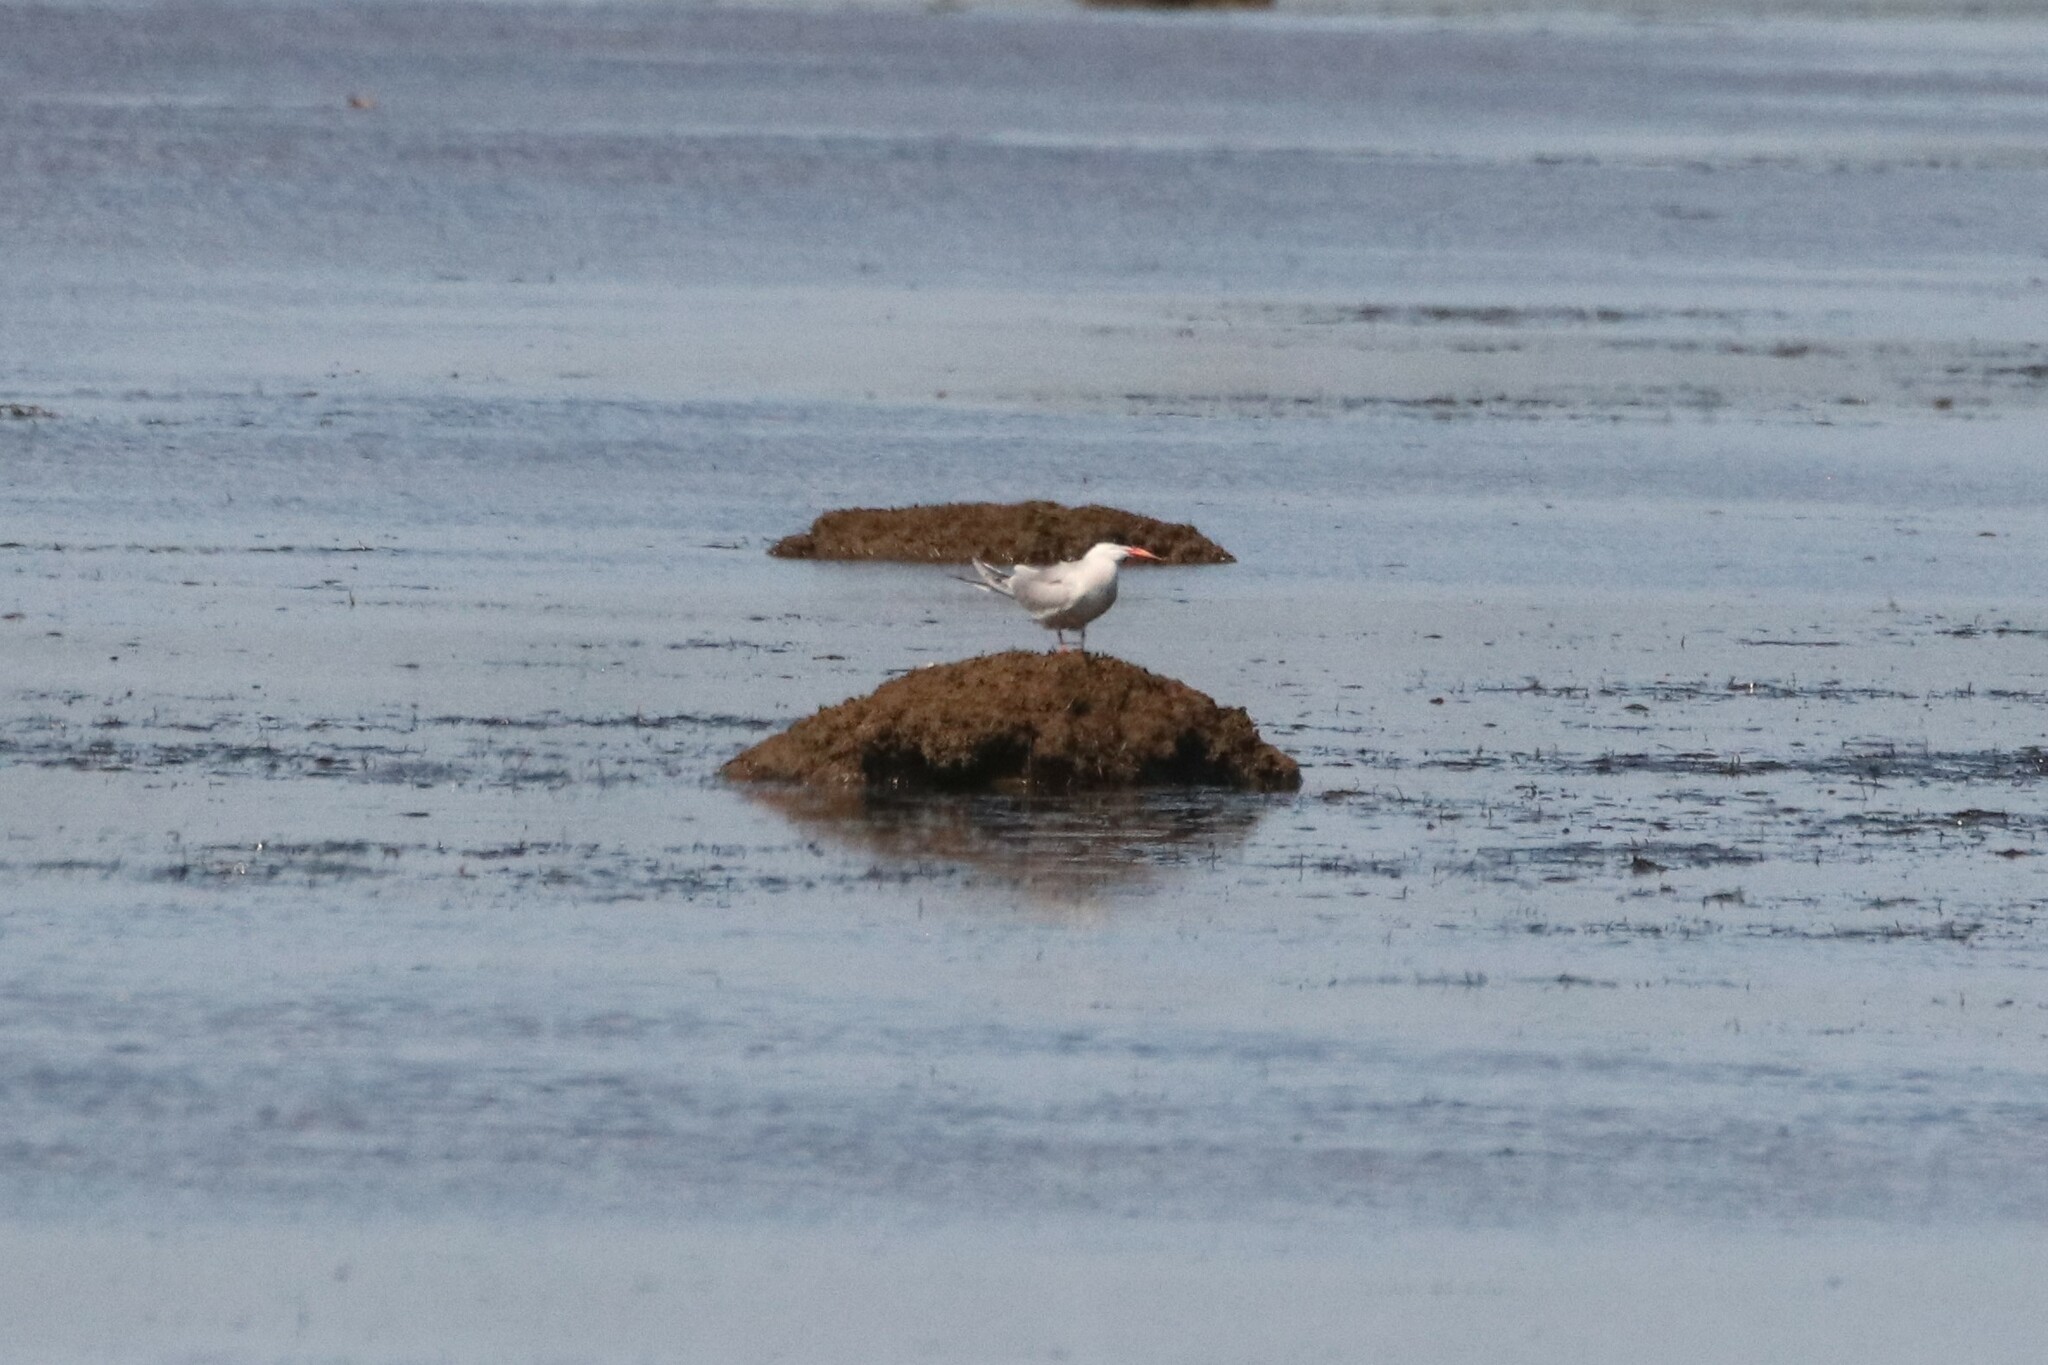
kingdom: Animalia
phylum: Chordata
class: Aves
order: Charadriiformes
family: Laridae
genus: Sterna
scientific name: Sterna hirundo
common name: Common tern
